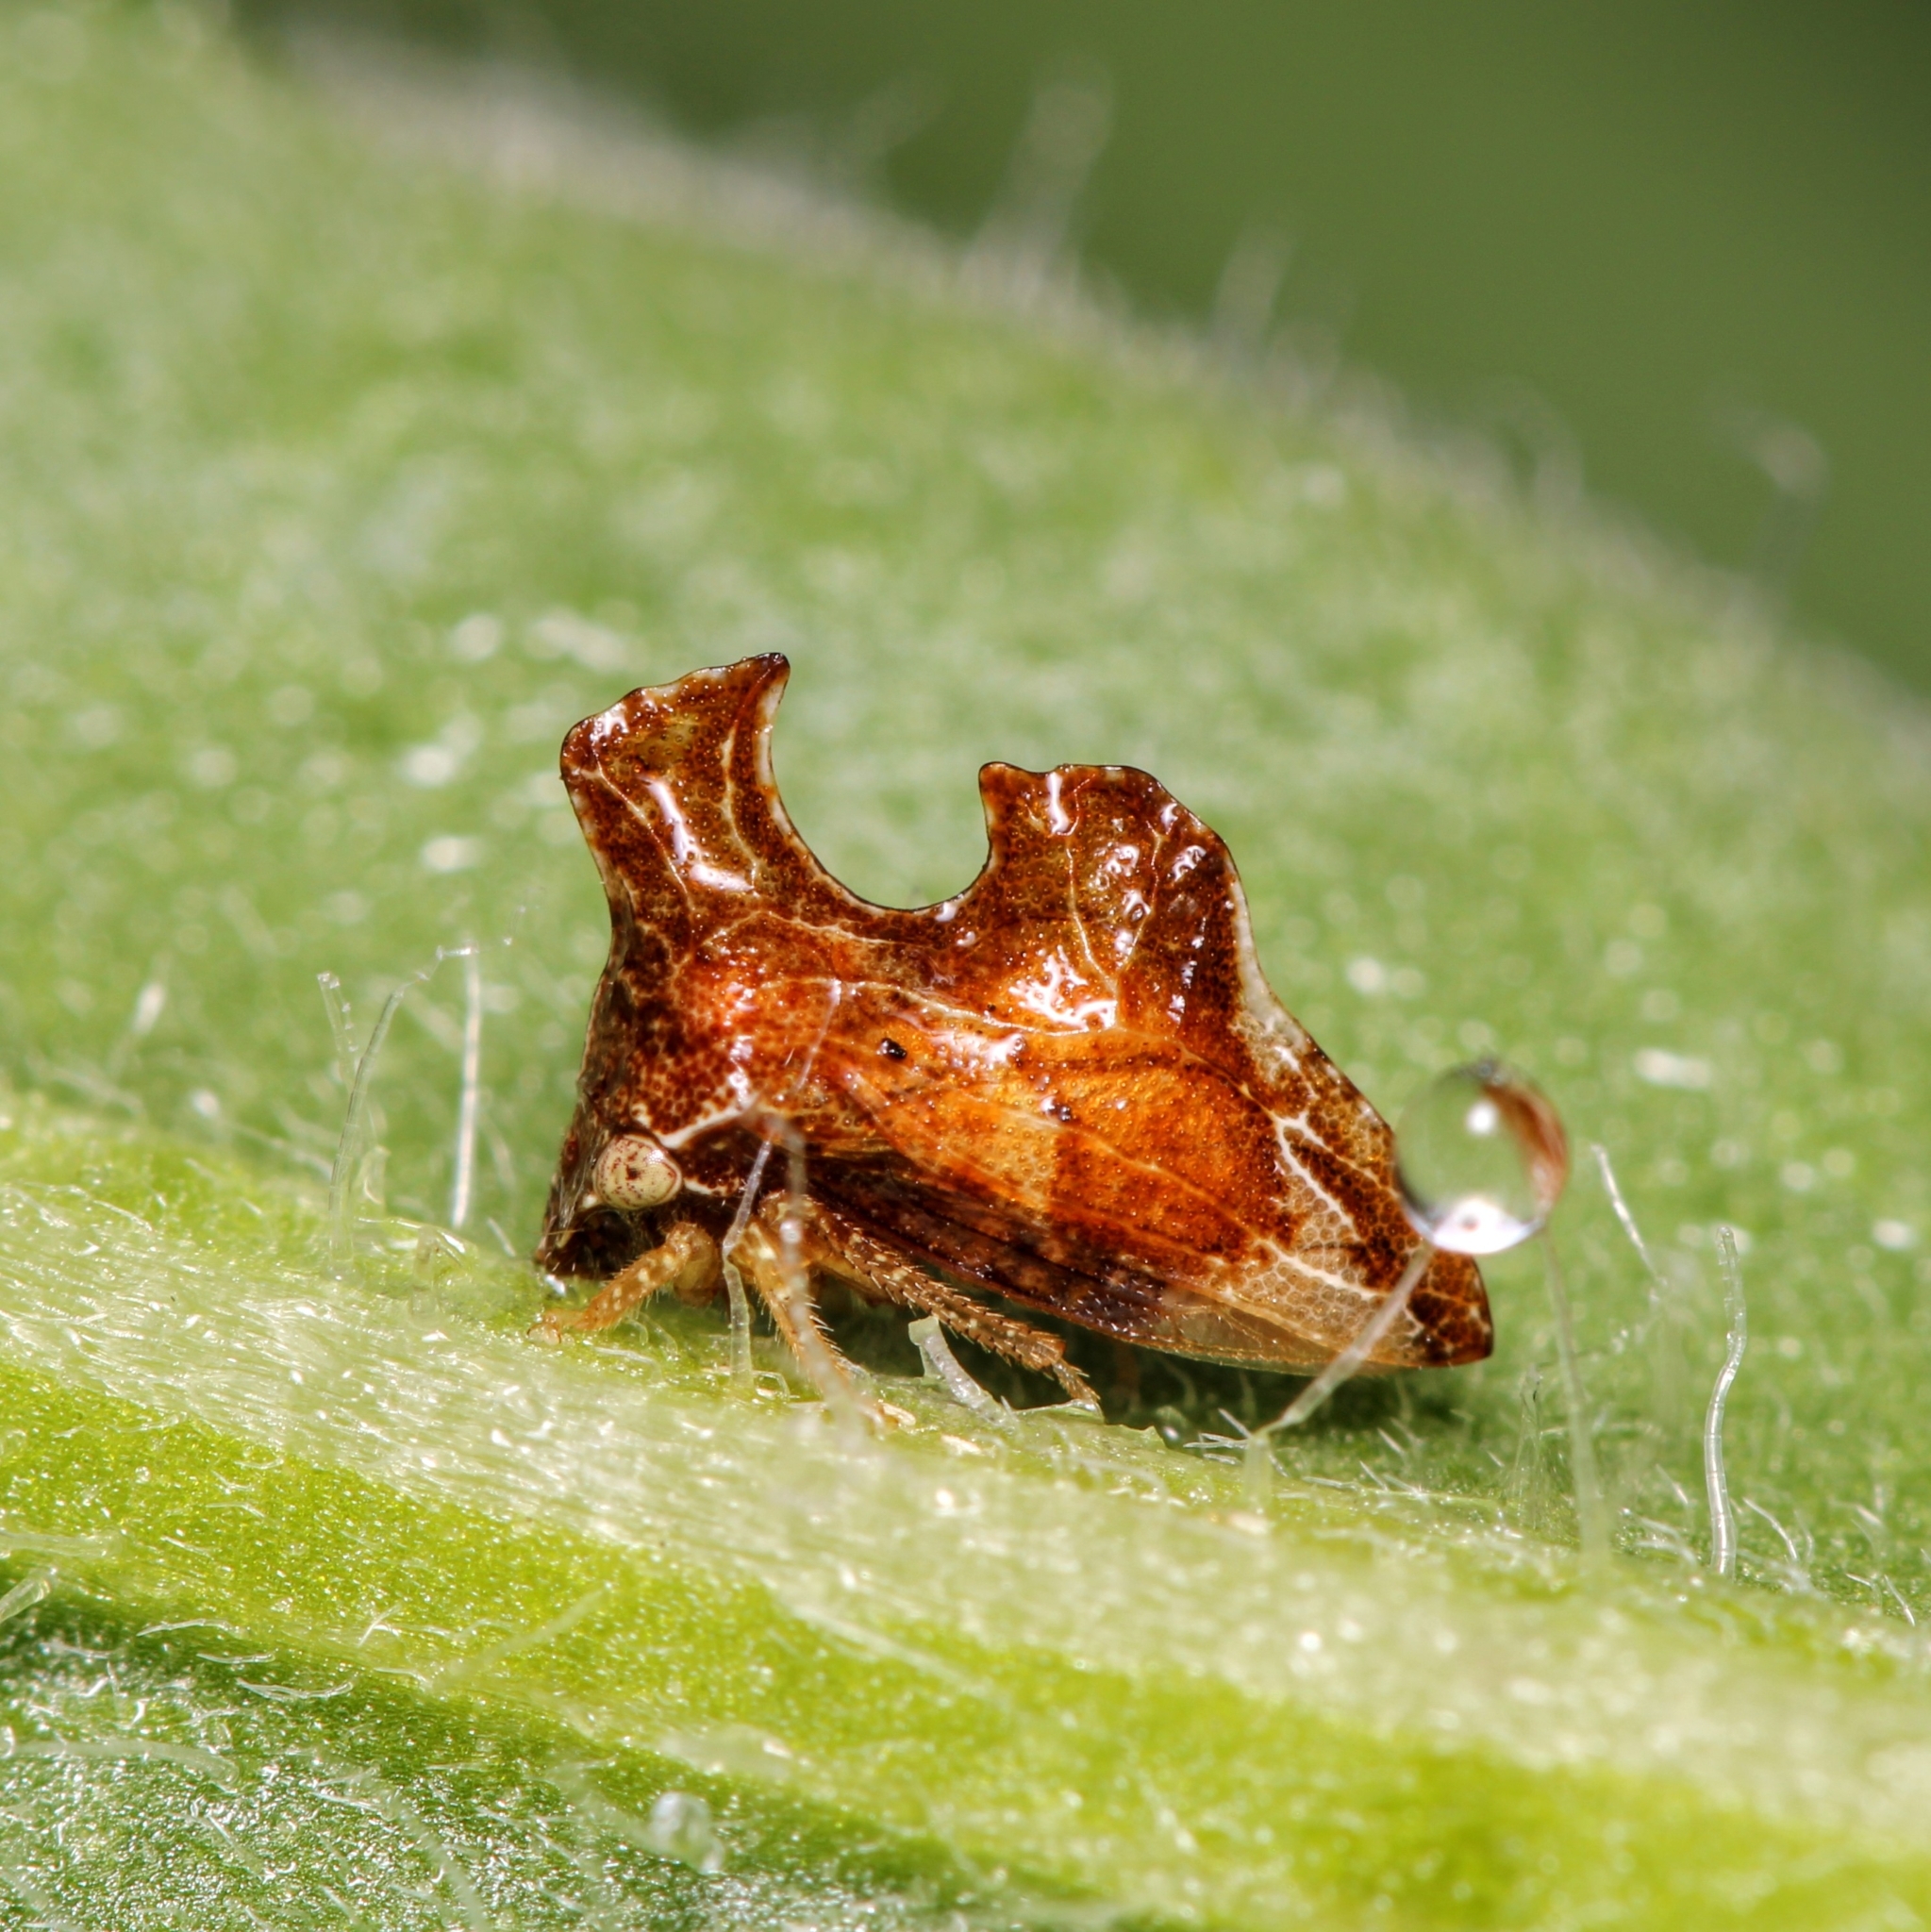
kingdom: Animalia
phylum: Arthropoda
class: Insecta
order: Hemiptera
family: Membracidae
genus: Entylia
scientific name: Entylia carinata
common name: Keeled treehopper
